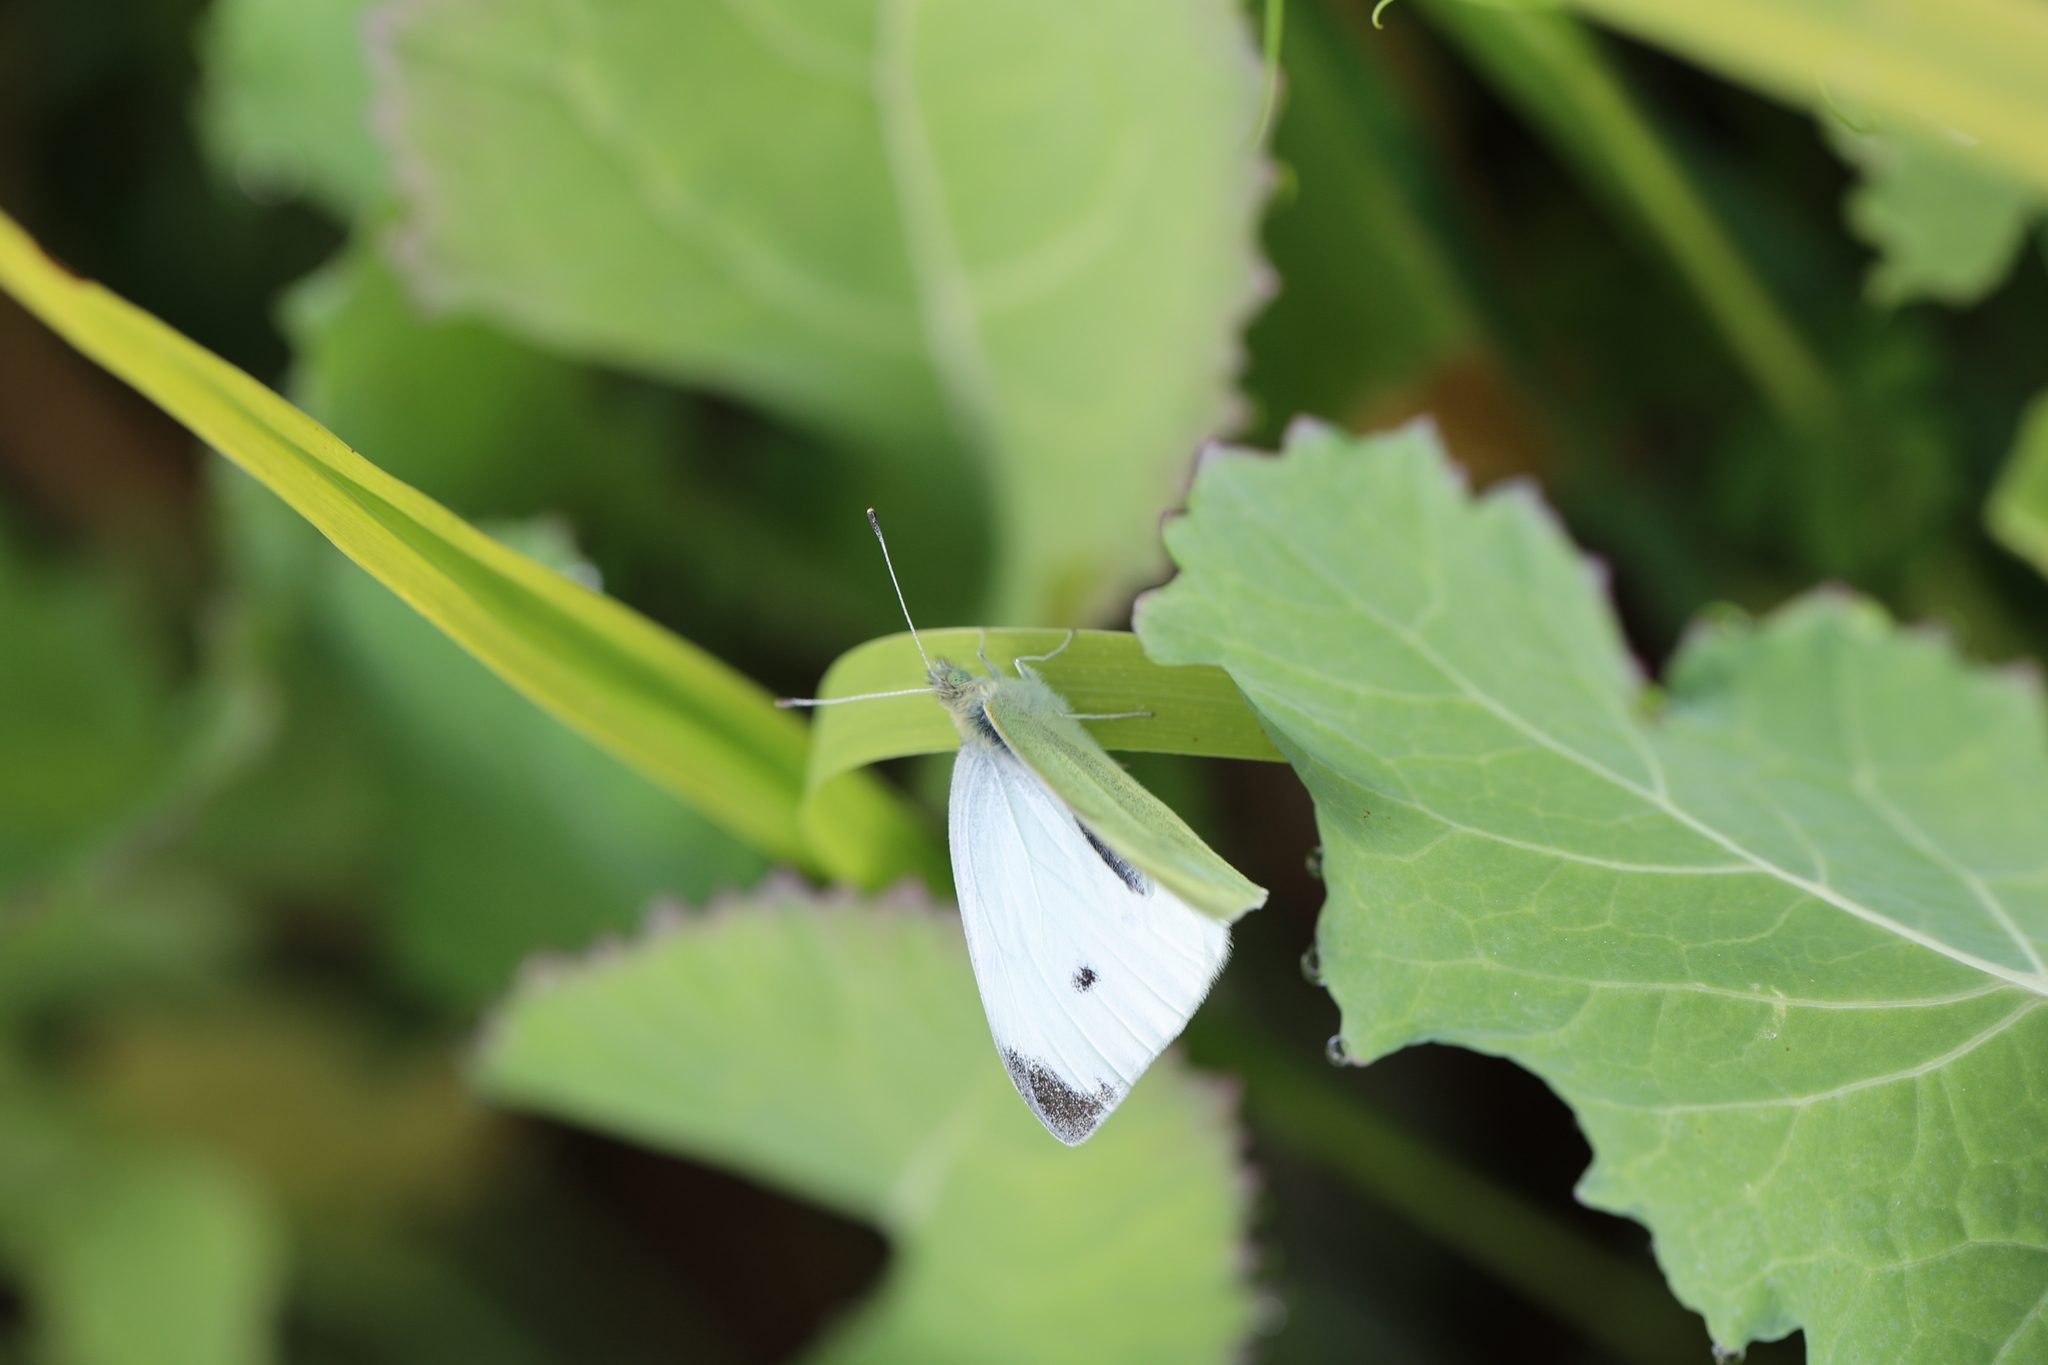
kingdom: Animalia
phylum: Arthropoda
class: Insecta
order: Lepidoptera
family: Pieridae
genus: Pieris
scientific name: Pieris rapae
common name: Small white
